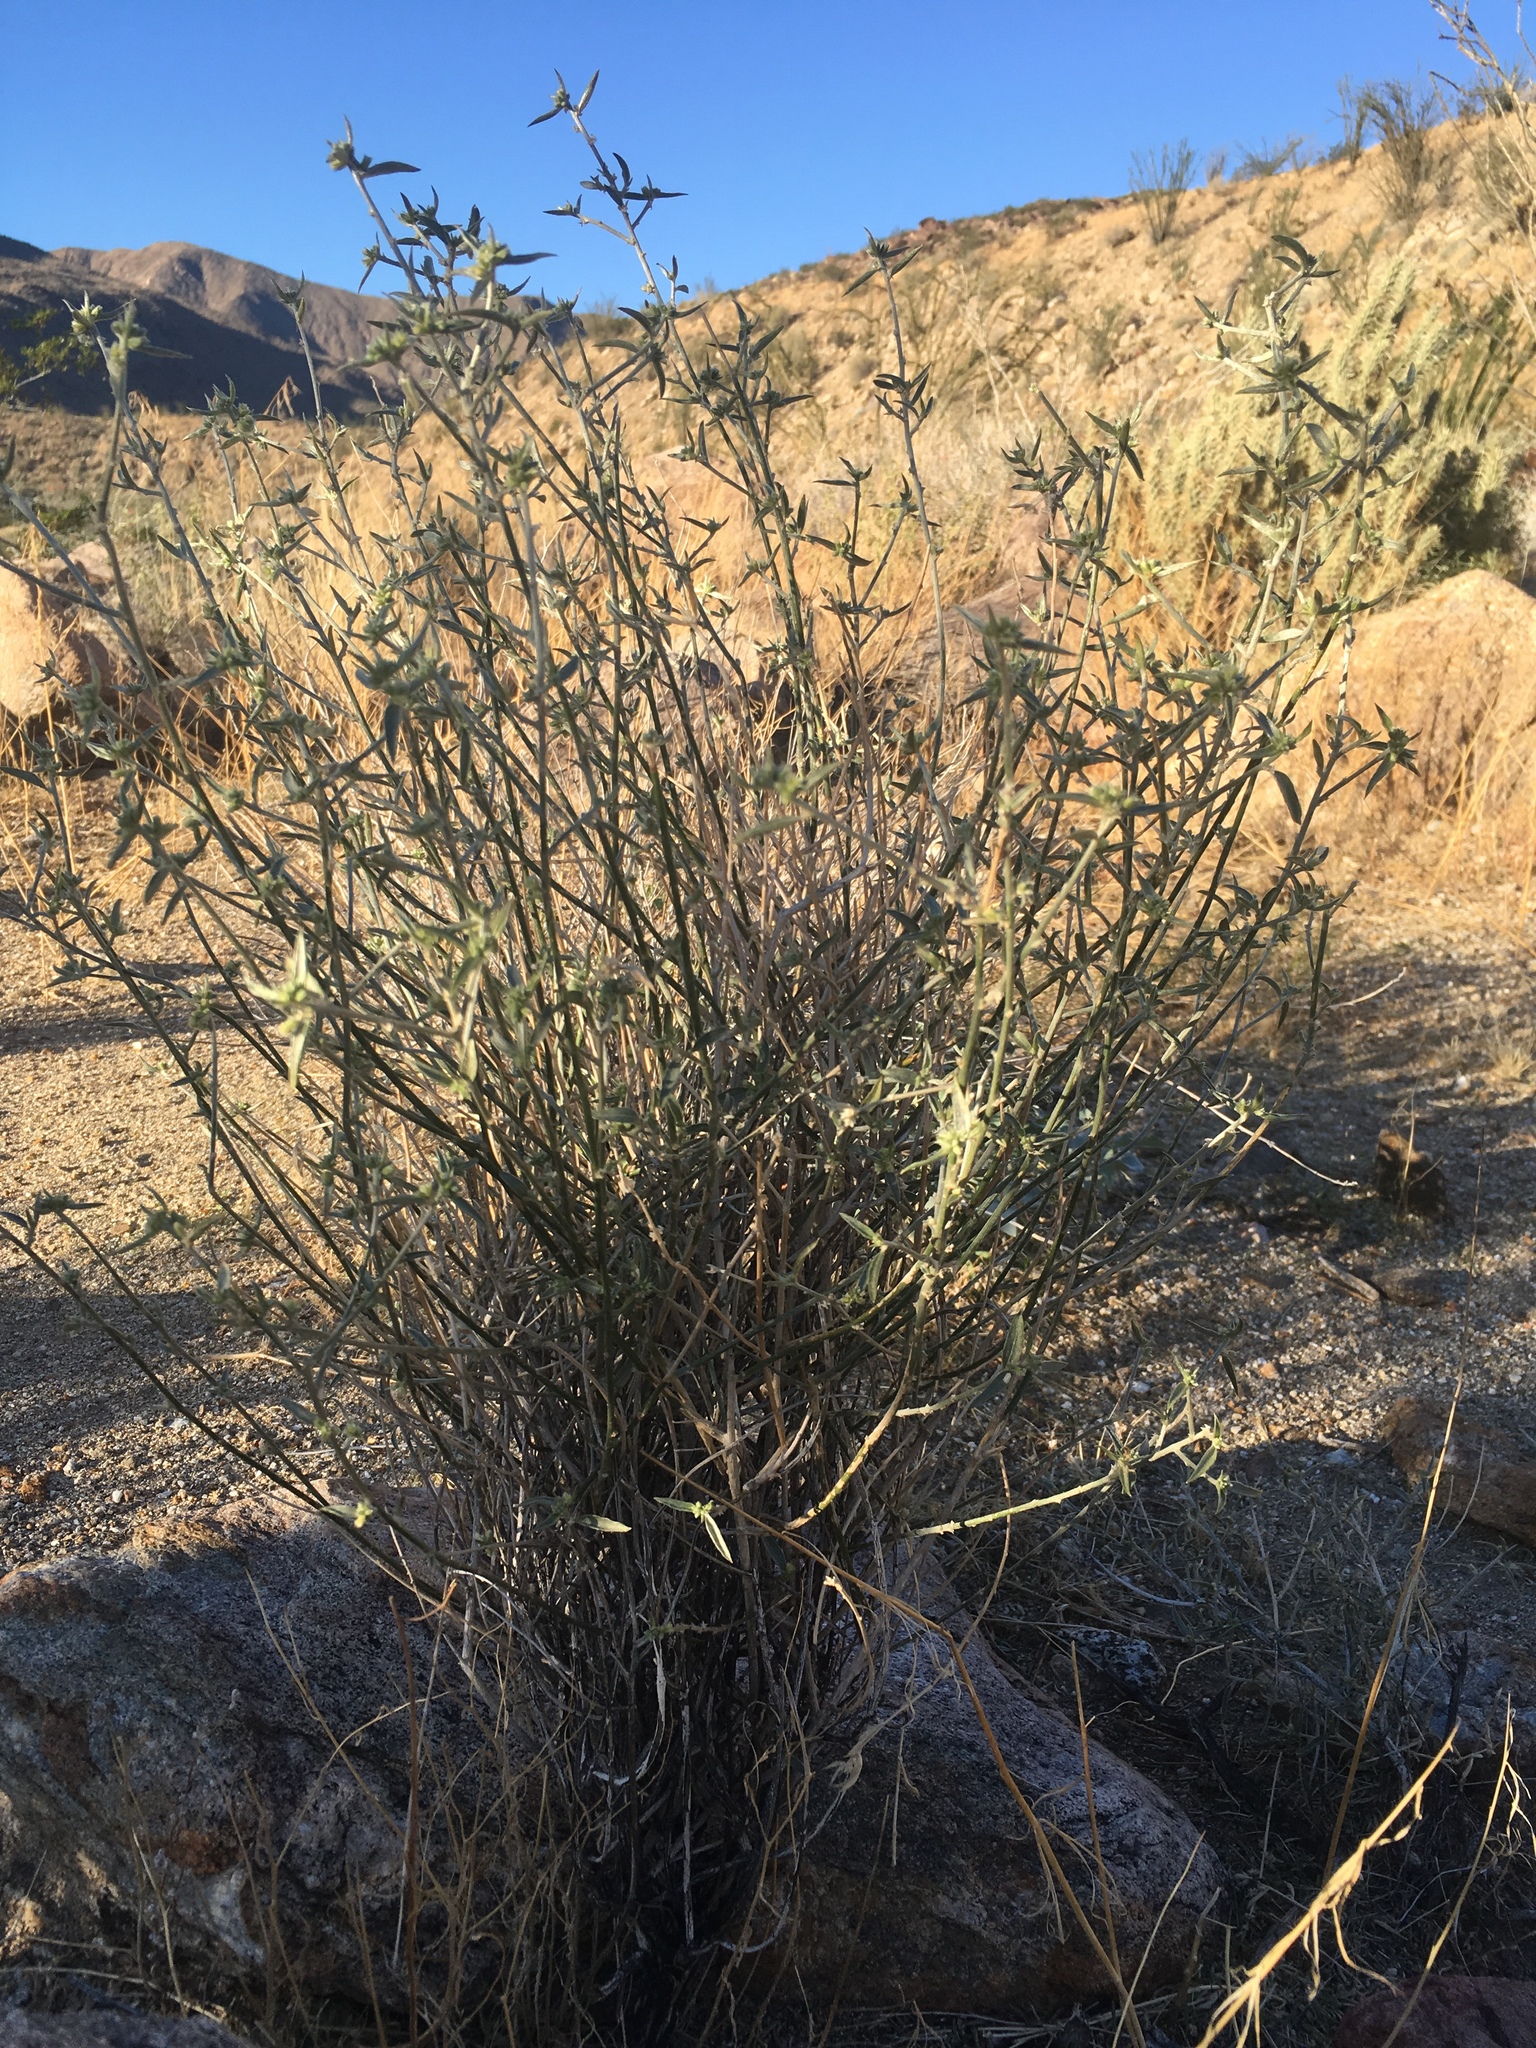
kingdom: Plantae
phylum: Tracheophyta
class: Magnoliopsida
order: Malpighiales
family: Euphorbiaceae
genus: Ditaxis
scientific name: Ditaxis lanceolata
